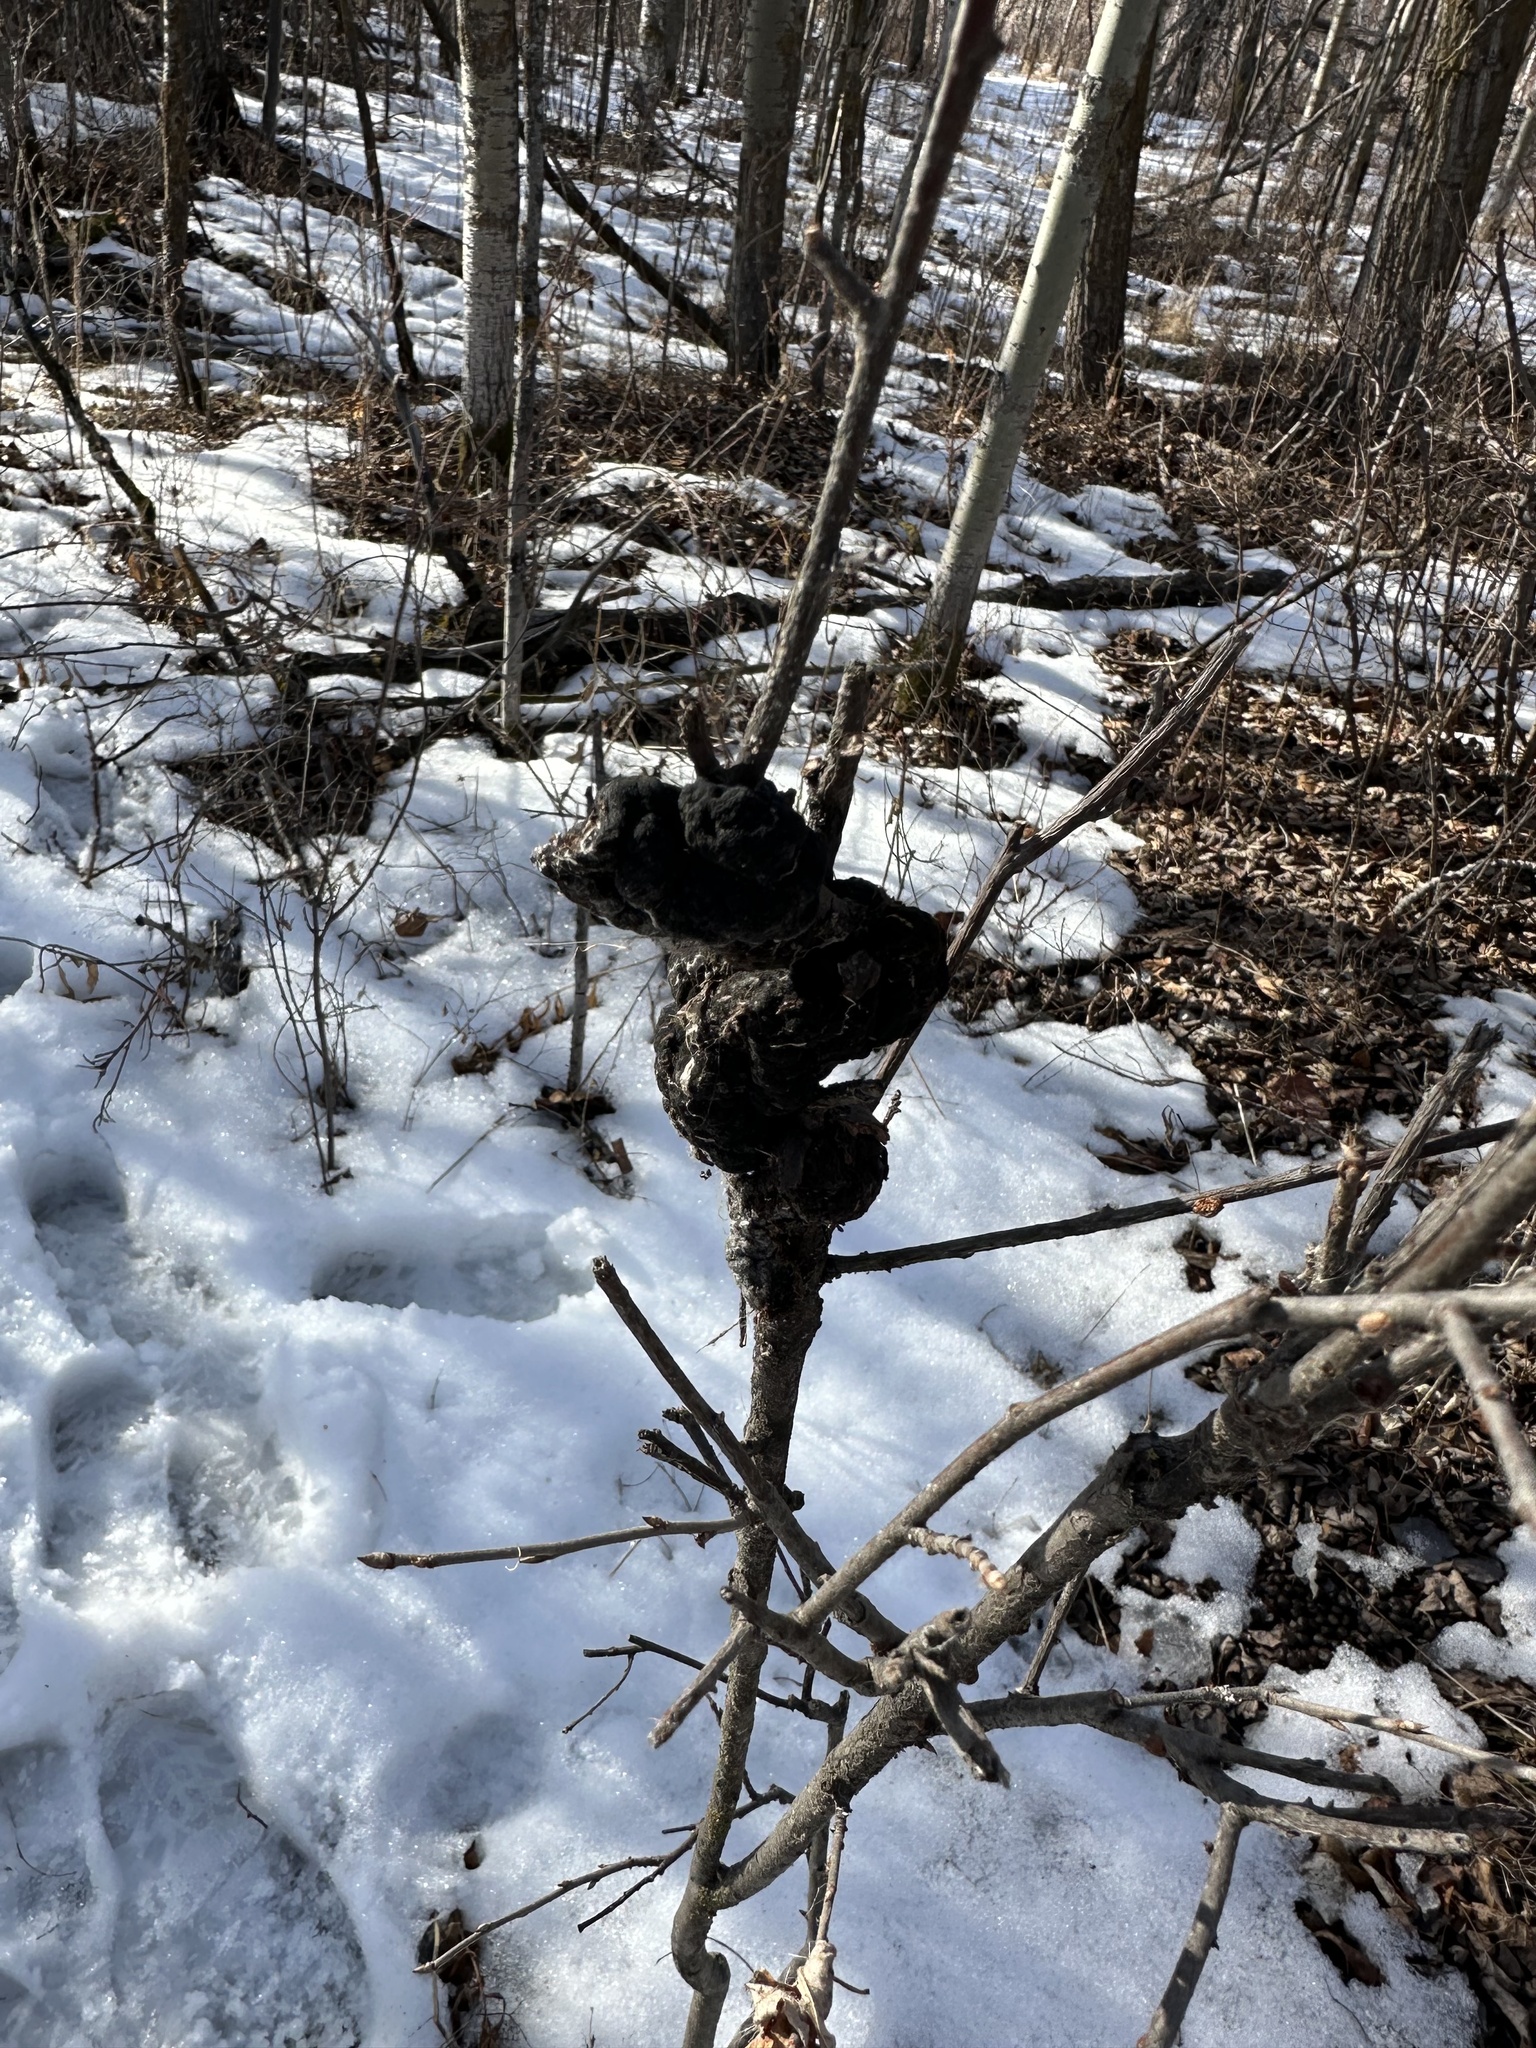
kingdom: Fungi
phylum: Ascomycota
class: Dothideomycetes
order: Venturiales
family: Venturiaceae
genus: Apiosporina
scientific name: Apiosporina morbosa
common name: Black knot
